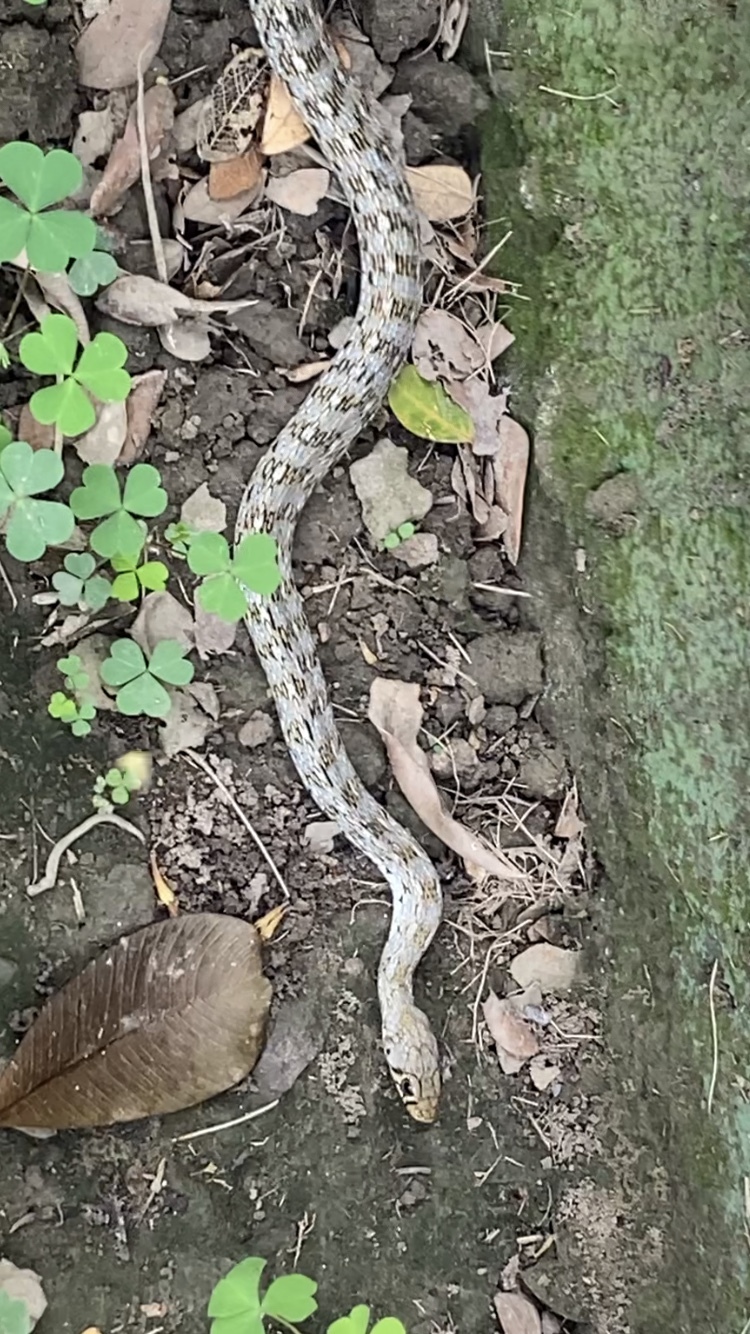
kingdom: Animalia
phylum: Chordata
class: Squamata
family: Colubridae
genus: Amphiesma
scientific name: Amphiesma stolatum
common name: Buff striped keelback
